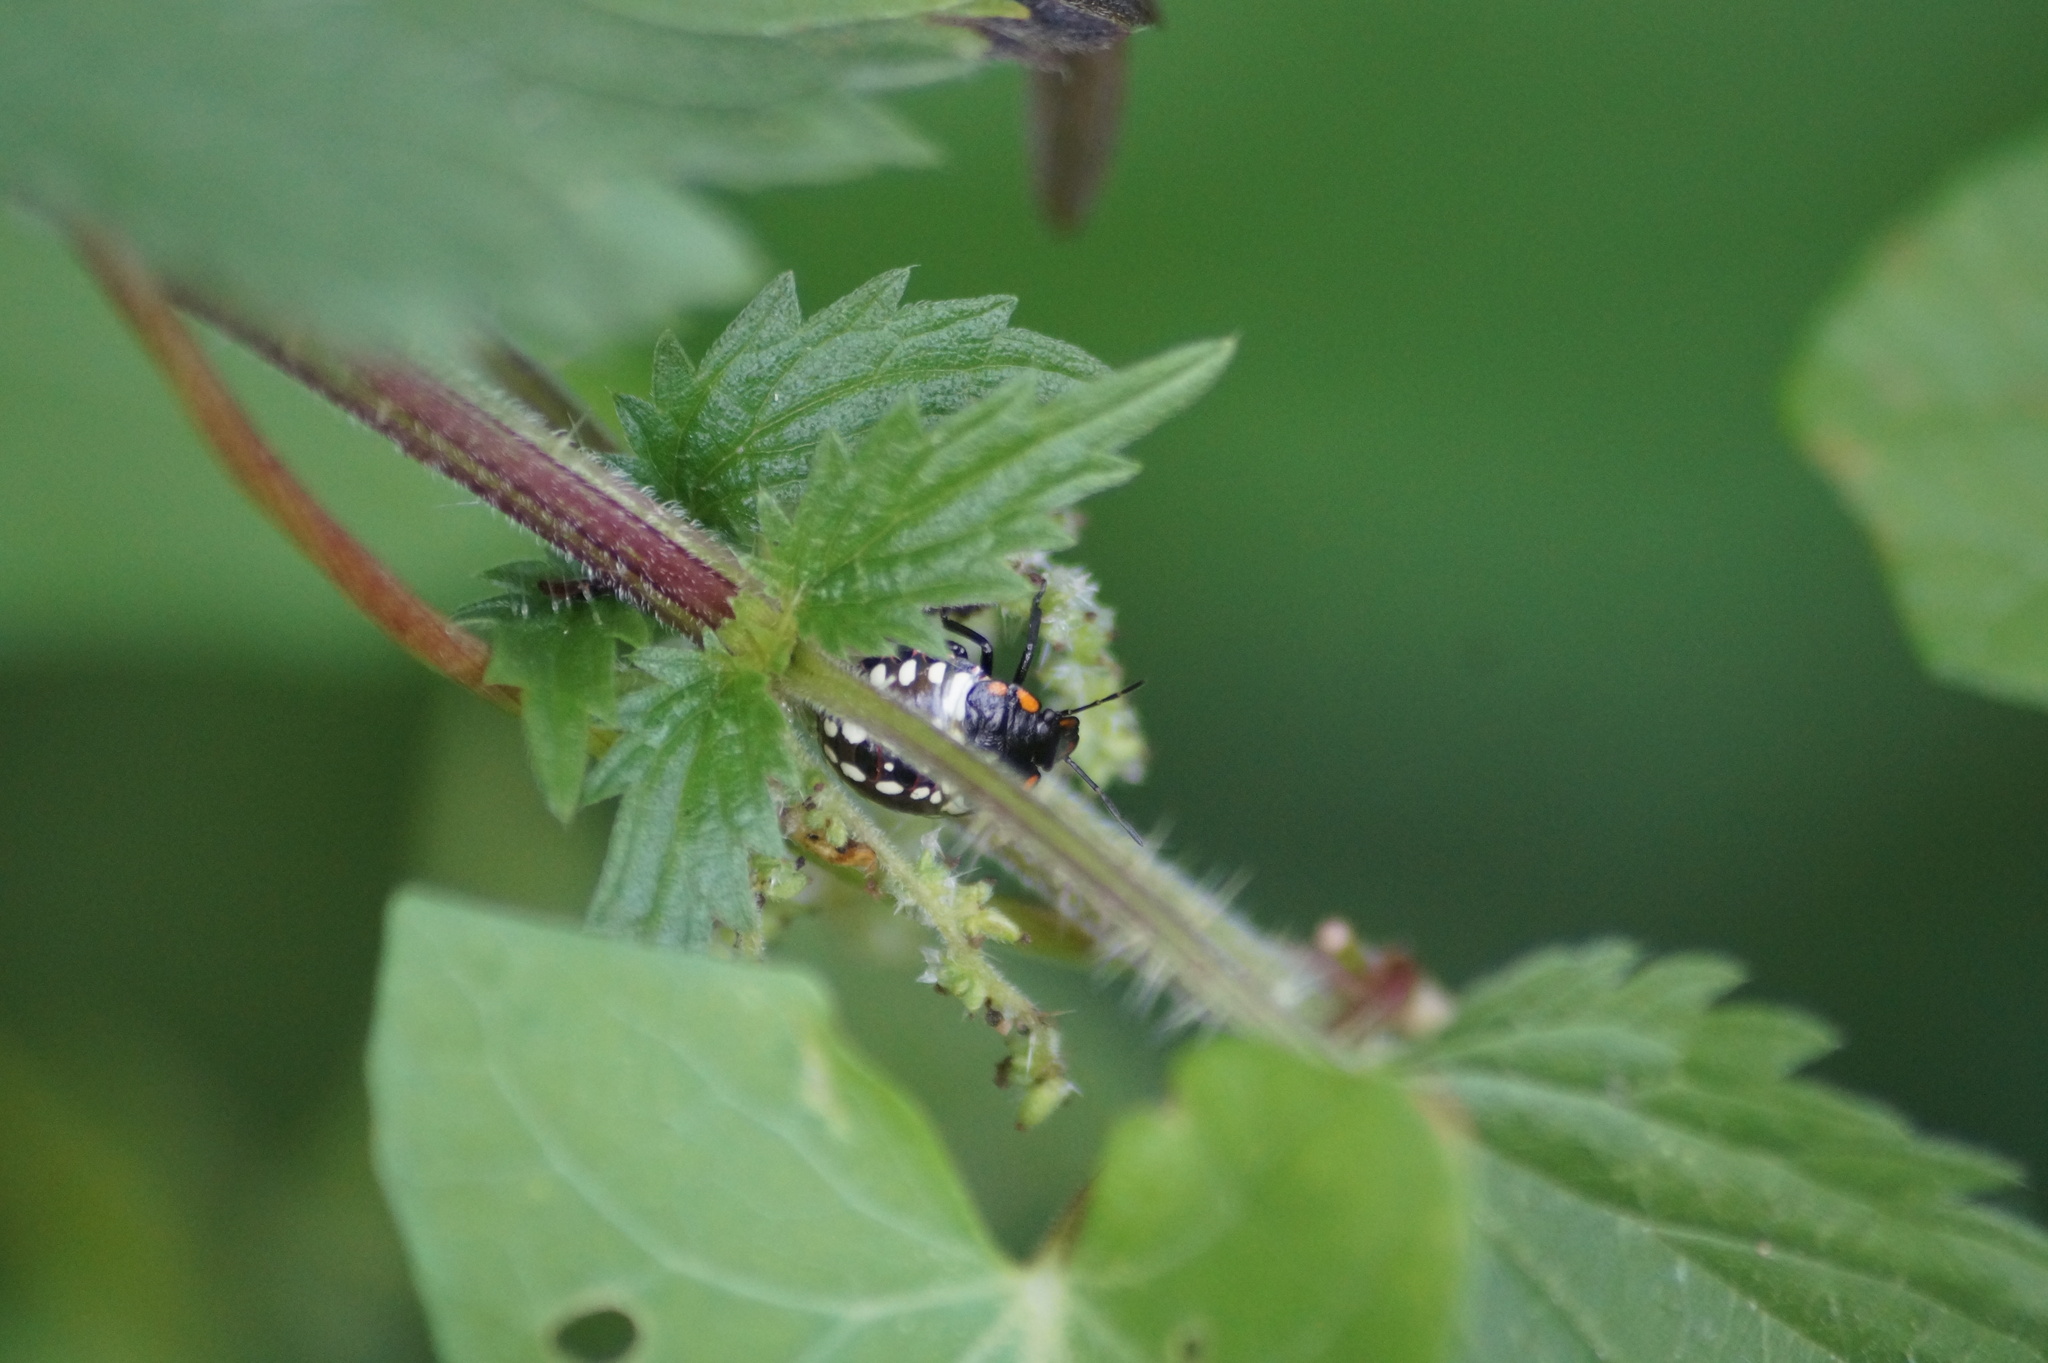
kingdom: Animalia
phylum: Arthropoda
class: Insecta
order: Hemiptera
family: Pentatomidae
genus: Nezara
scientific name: Nezara viridula
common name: Southern green stink bug
